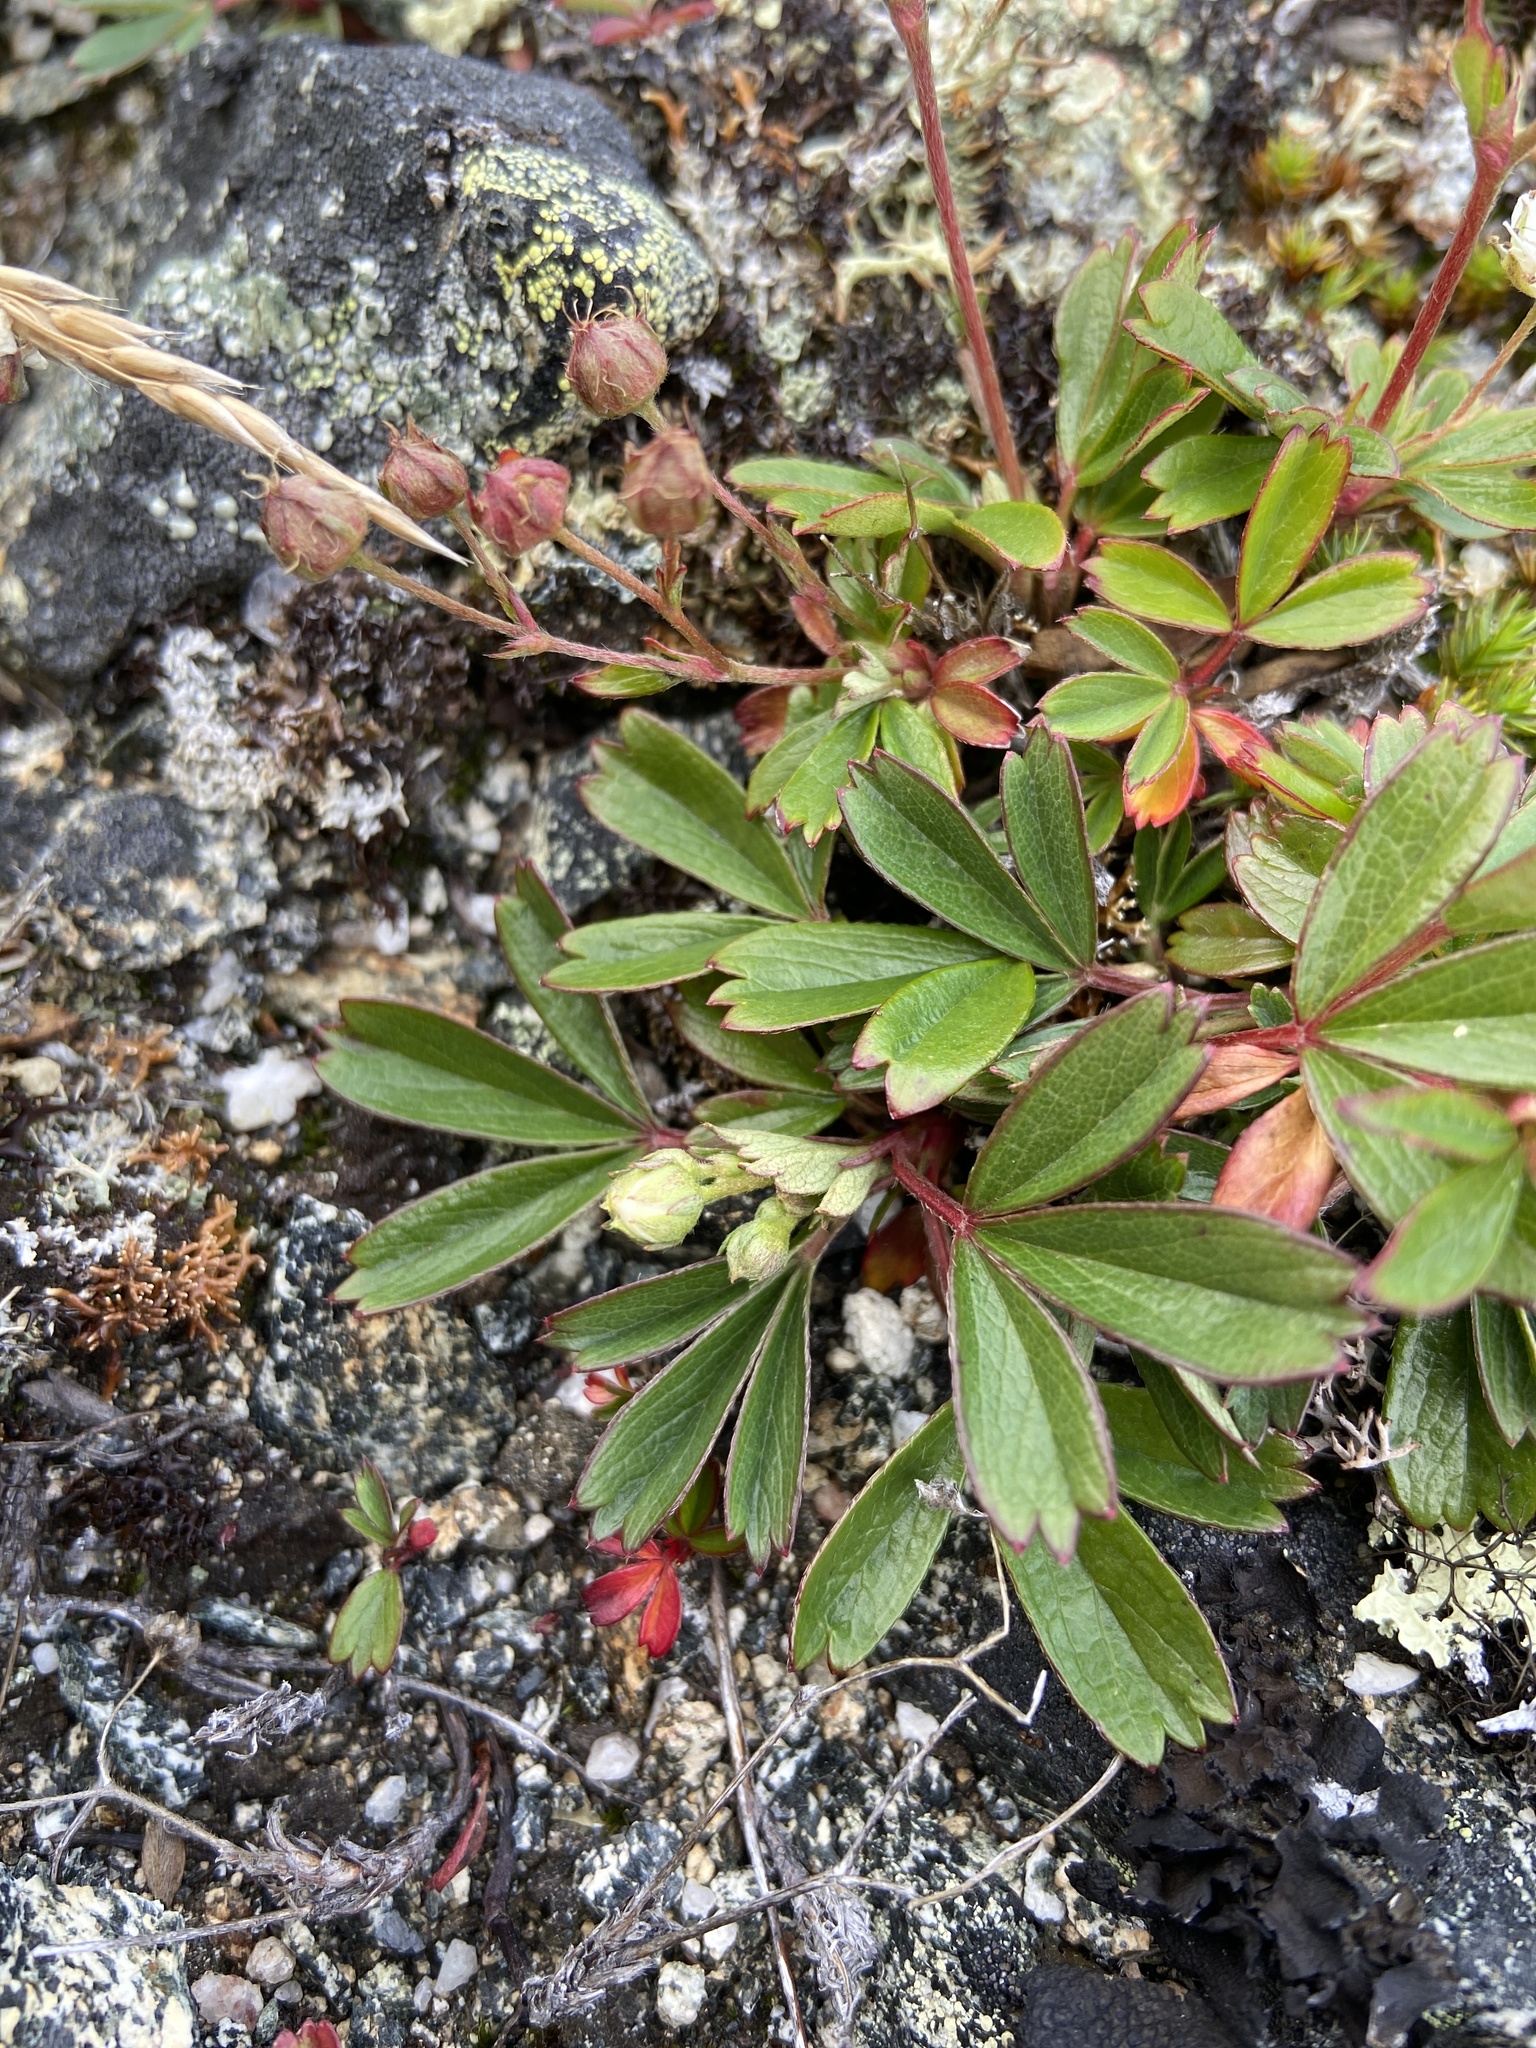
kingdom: Plantae
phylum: Tracheophyta
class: Magnoliopsida
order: Rosales
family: Rosaceae
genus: Sibbaldia
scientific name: Sibbaldia tridentata
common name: Three-toothed cinquefoil
